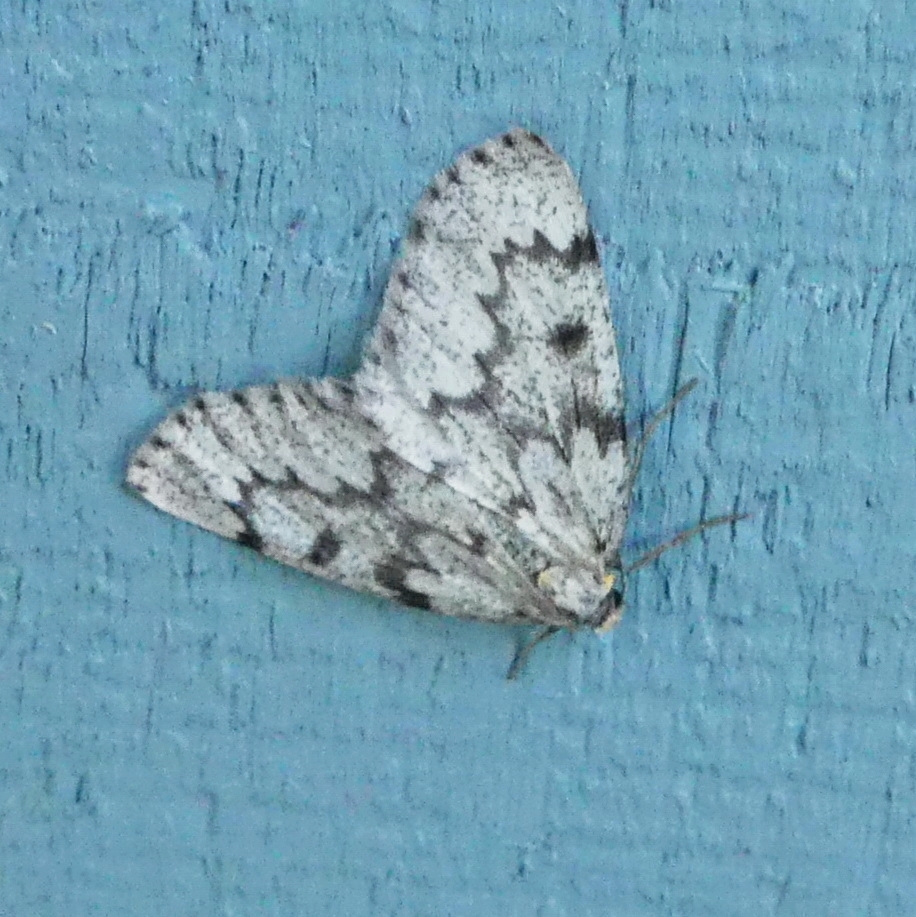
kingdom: Animalia
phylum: Arthropoda
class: Insecta
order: Lepidoptera
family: Geometridae
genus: Nepytia
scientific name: Nepytia canosaria
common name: False hemlock looper
